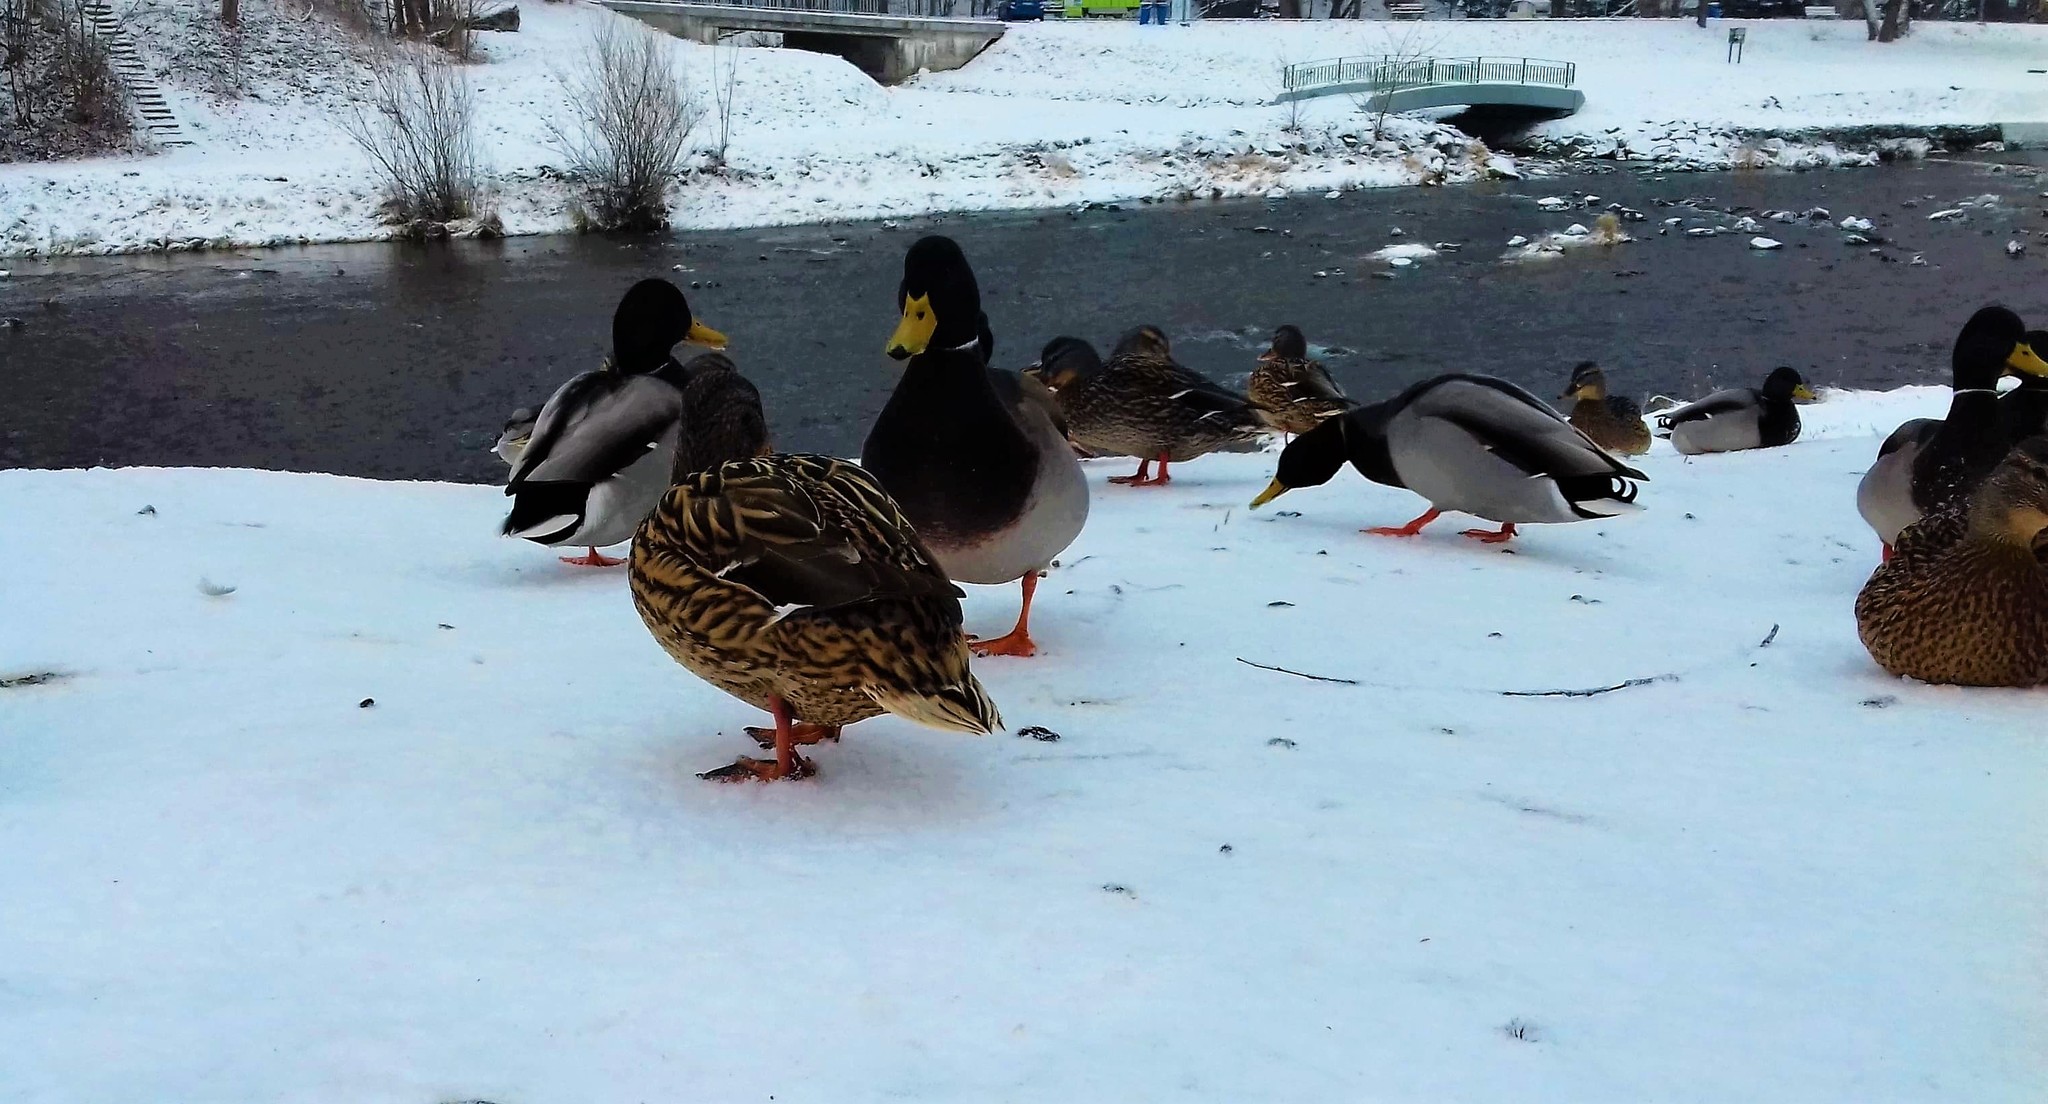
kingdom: Animalia
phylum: Chordata
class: Aves
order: Anseriformes
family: Anatidae
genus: Anas
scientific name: Anas platyrhynchos
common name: Mallard
